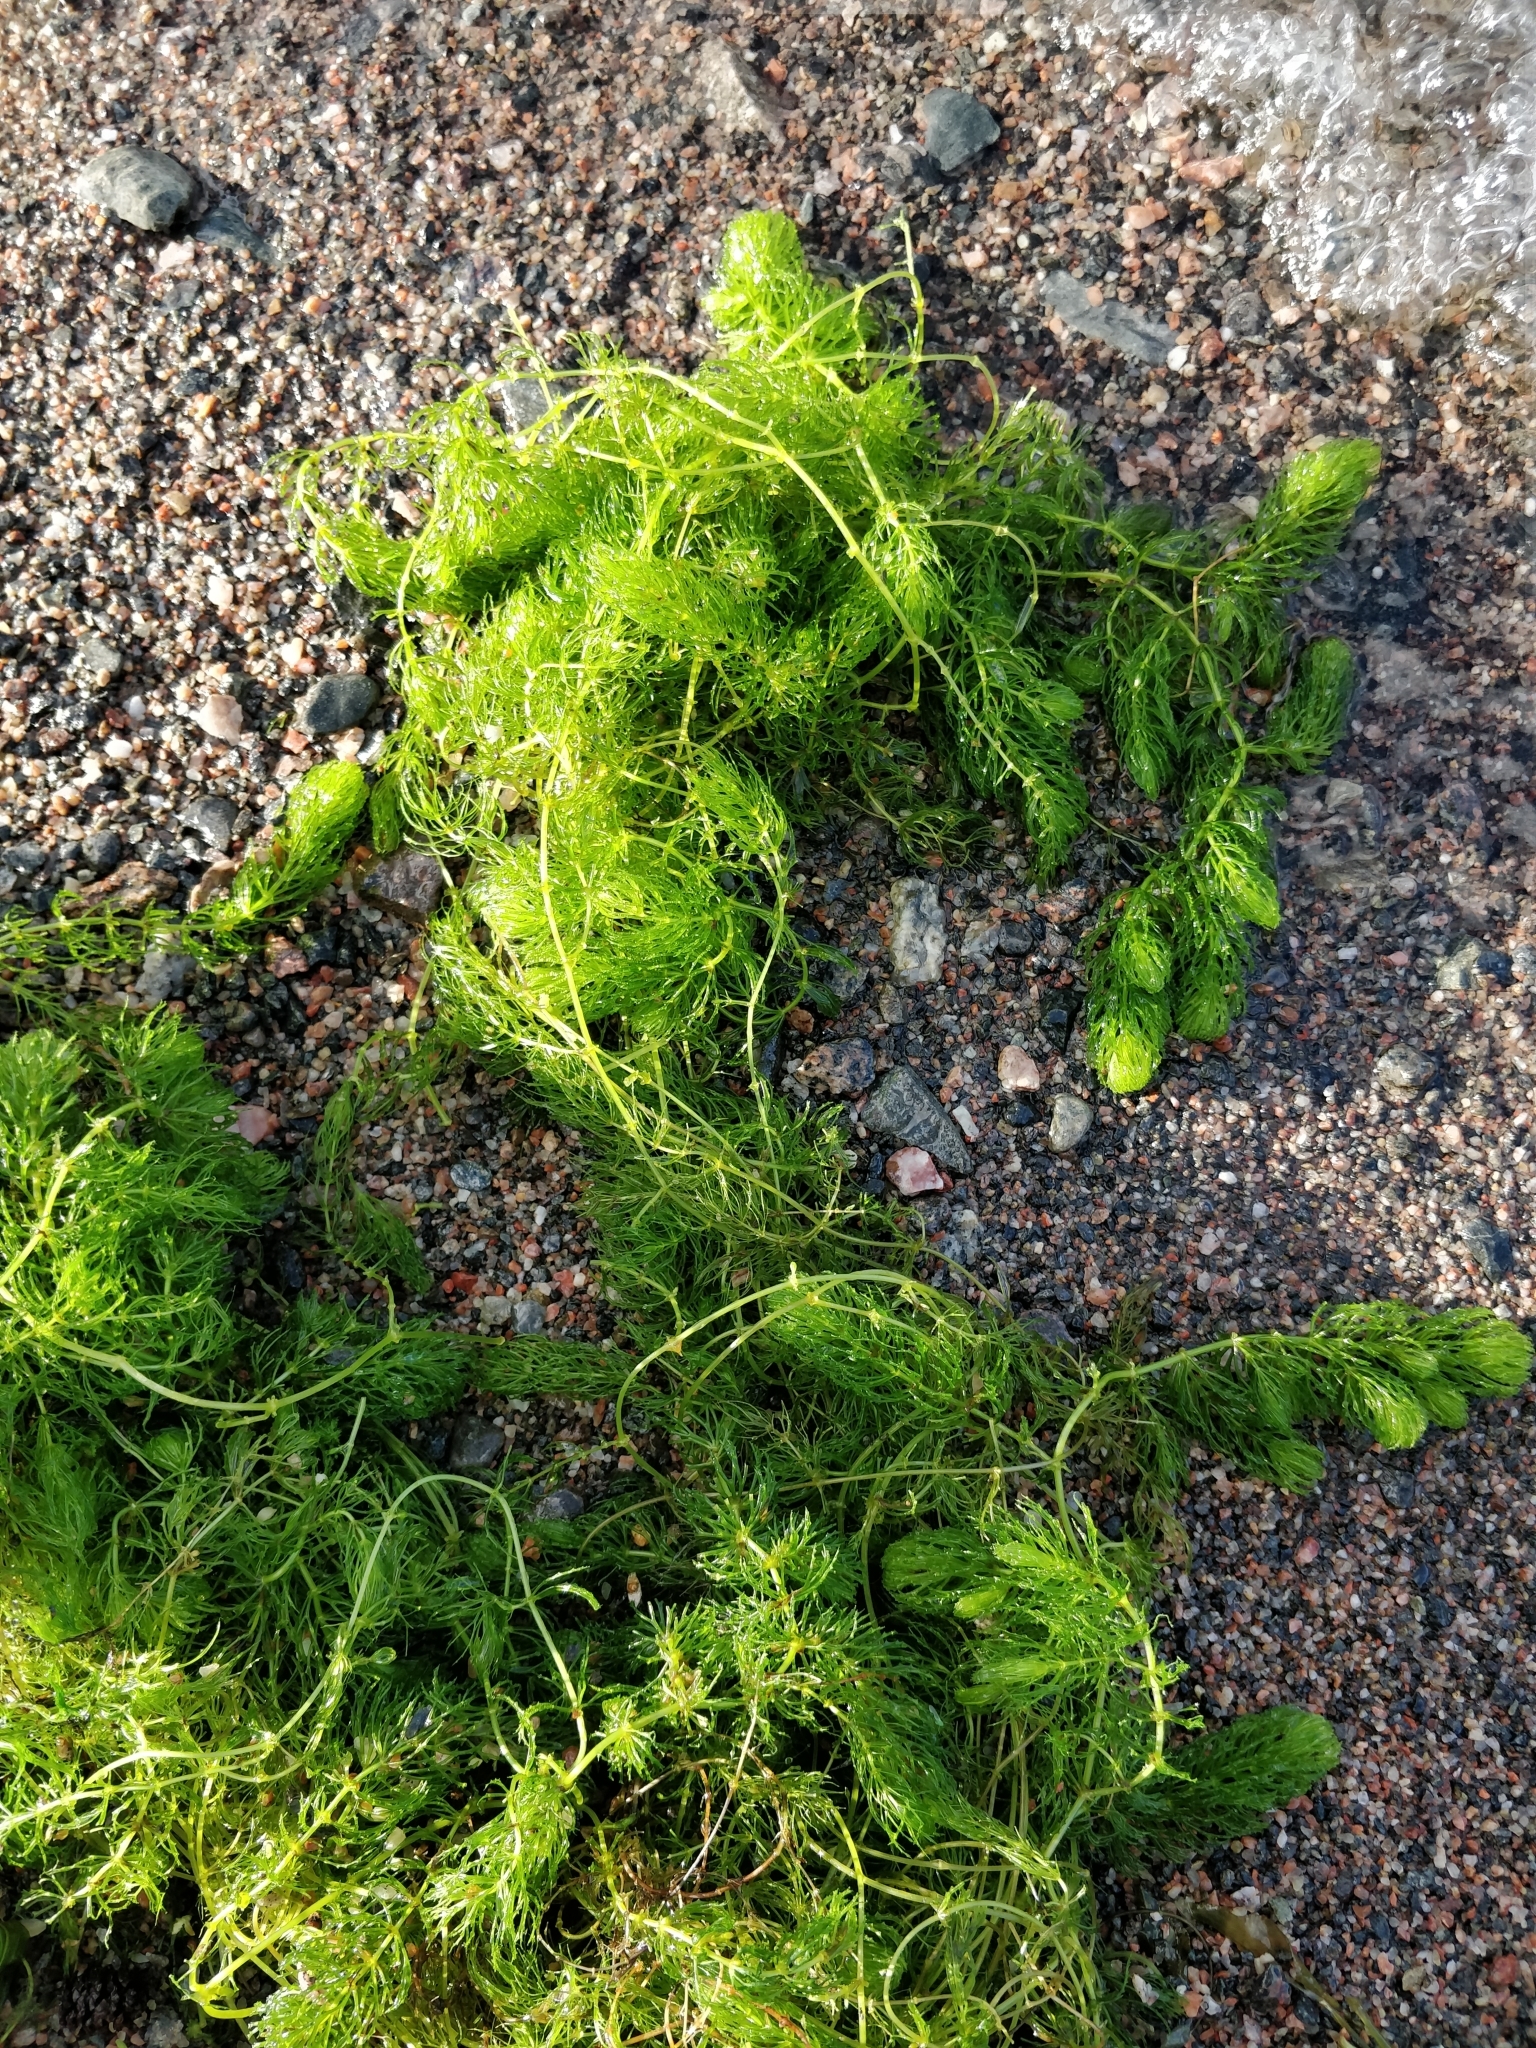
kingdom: Plantae
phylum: Tracheophyta
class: Magnoliopsida
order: Ceratophyllales
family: Ceratophyllaceae
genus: Ceratophyllum
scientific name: Ceratophyllum demersum
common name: Rigid hornwort
